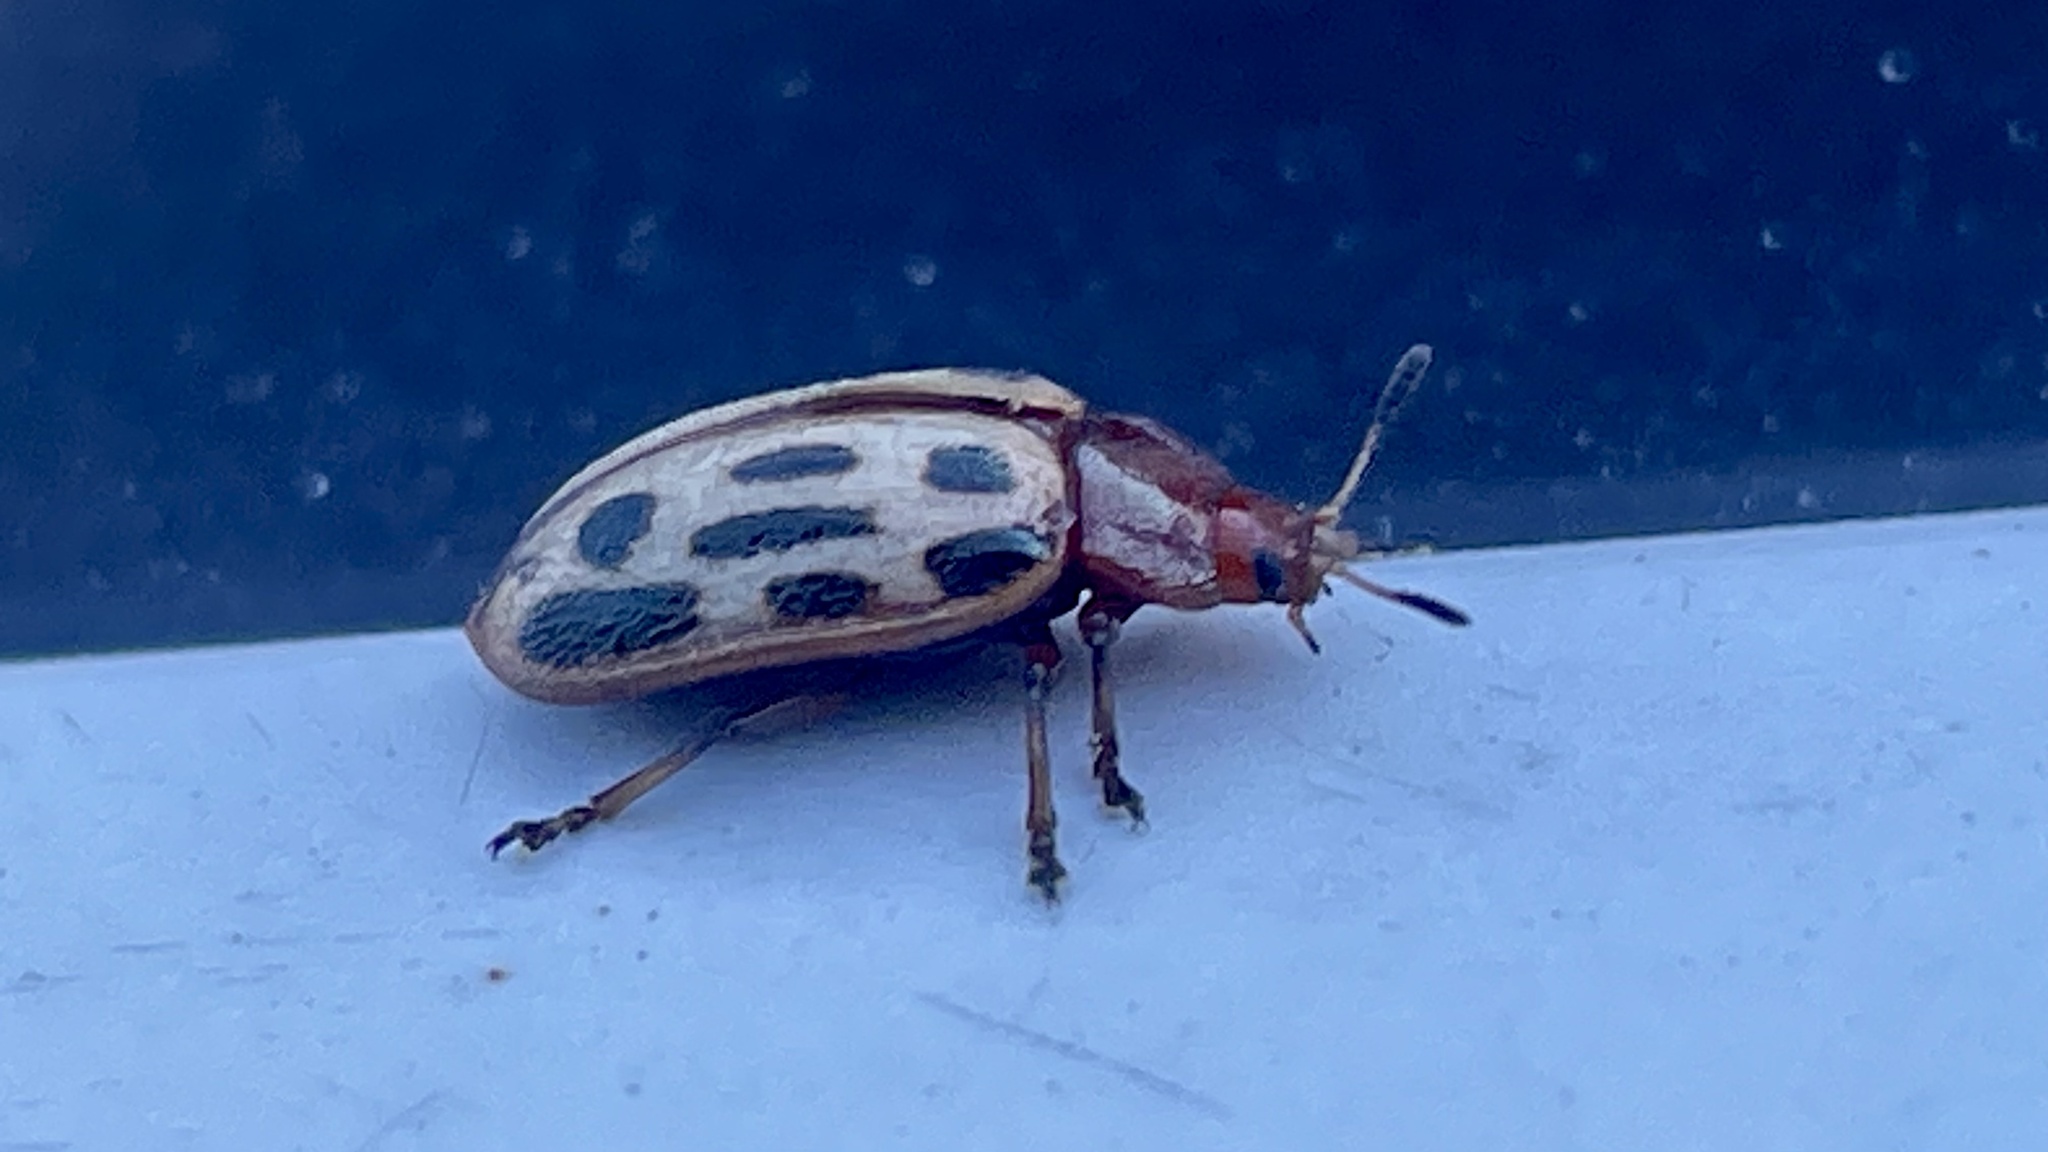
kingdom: Animalia
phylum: Arthropoda
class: Insecta
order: Coleoptera
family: Chrysomelidae
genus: Chrysomela
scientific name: Chrysomela texana
